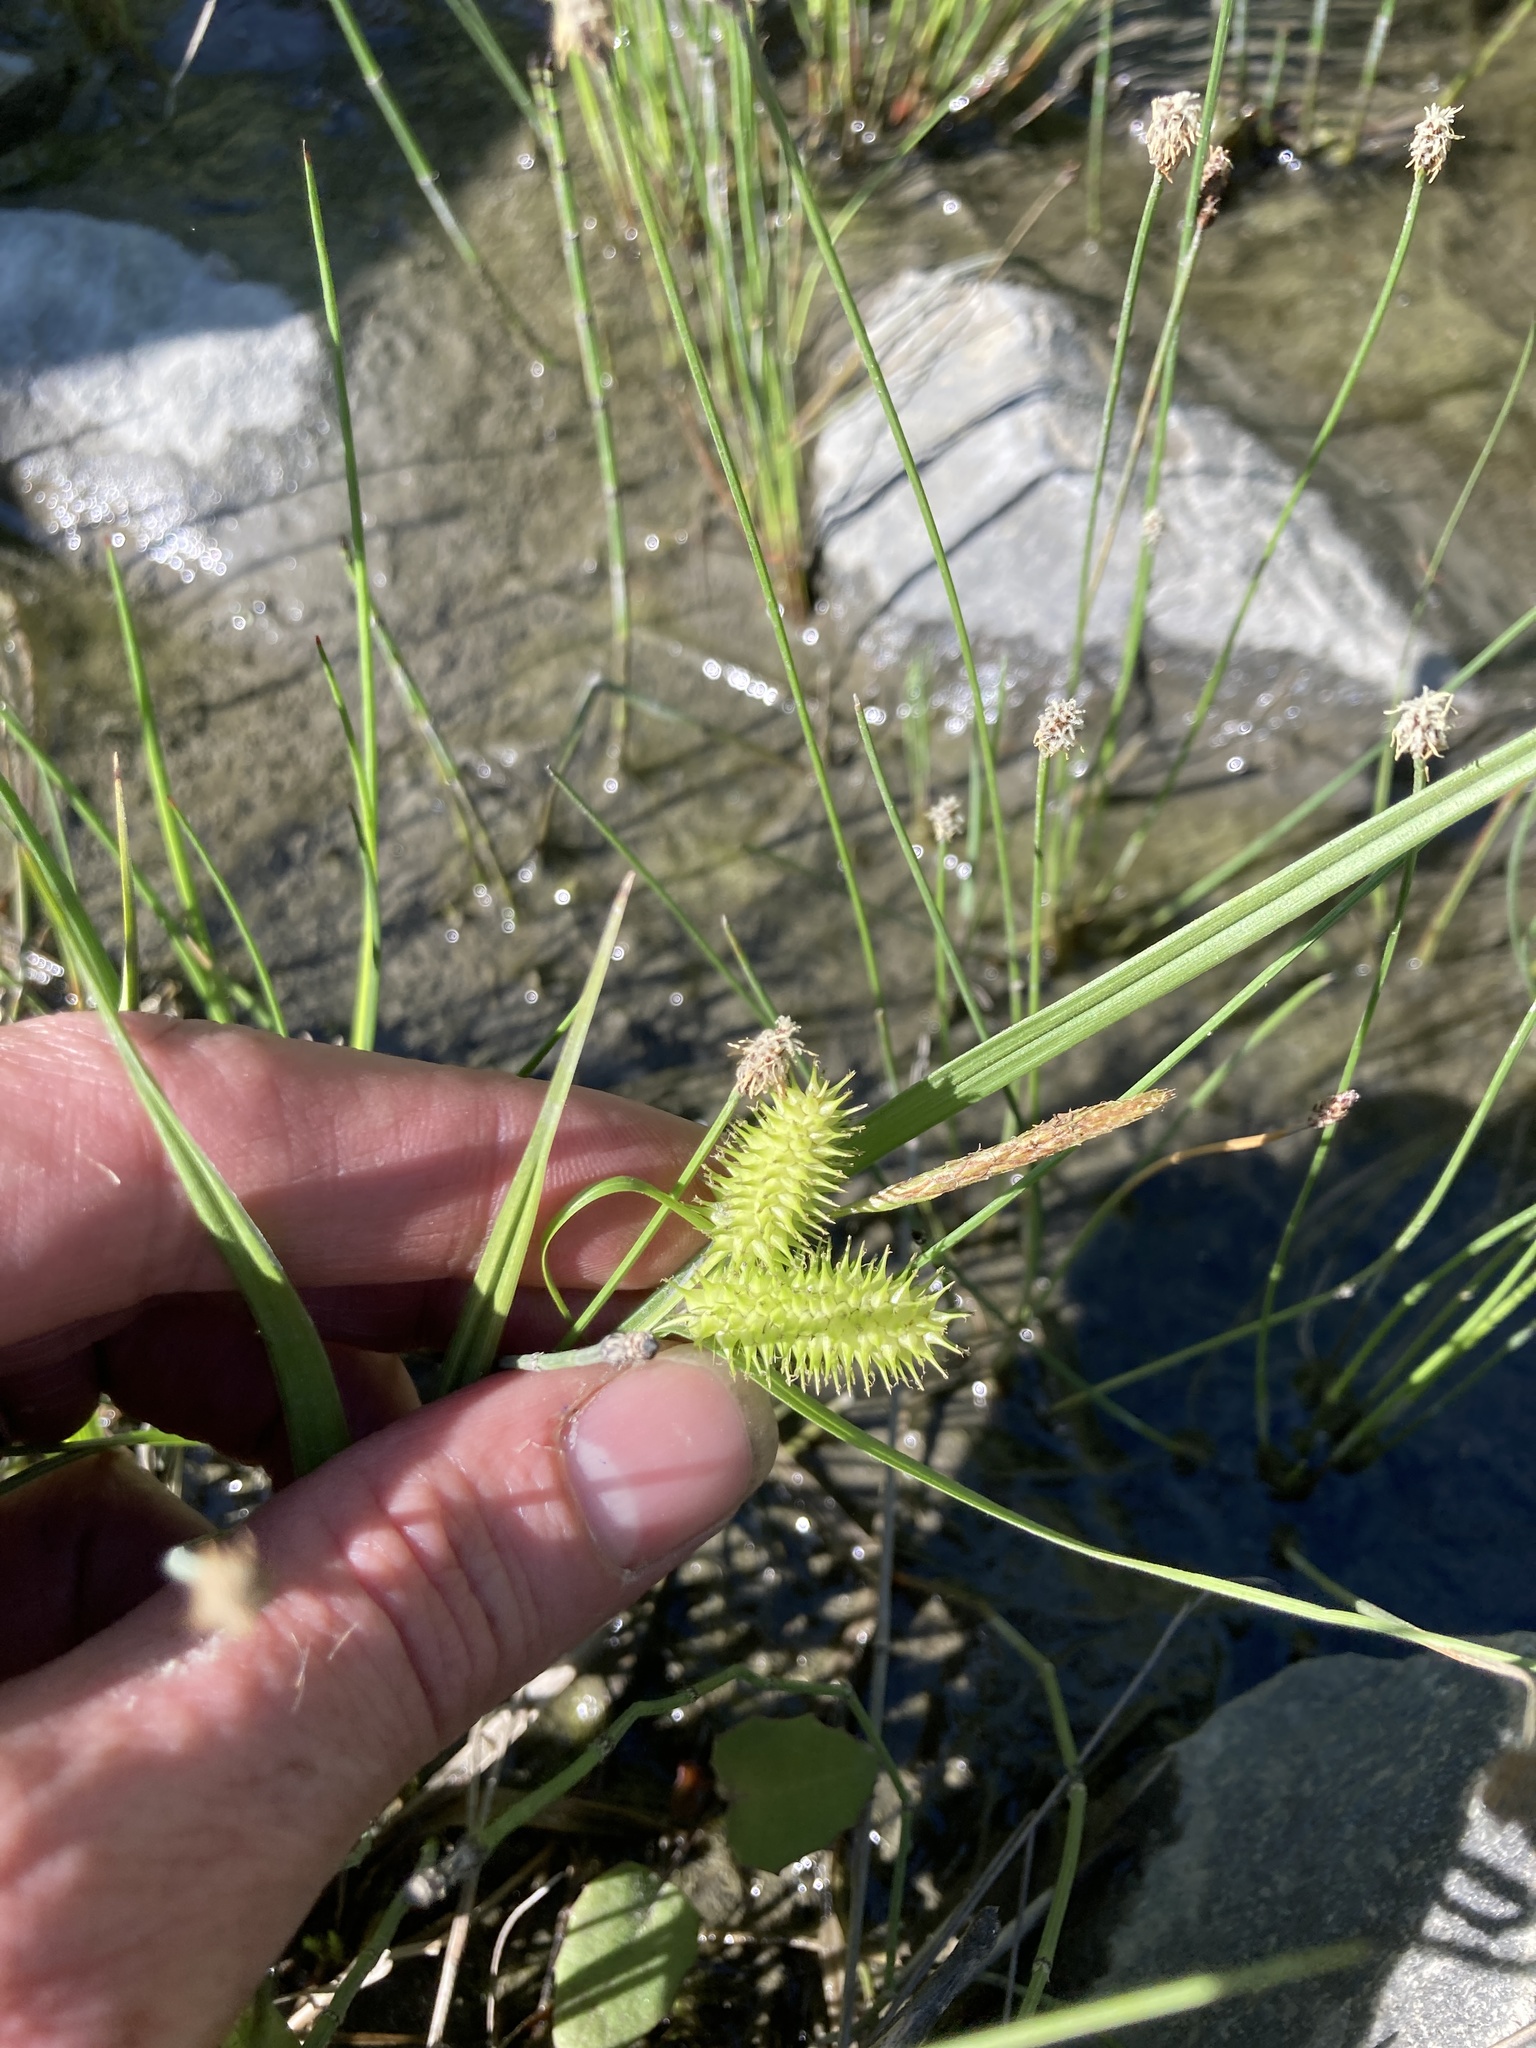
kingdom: Plantae
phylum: Tracheophyta
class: Liliopsida
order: Poales
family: Cyperaceae
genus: Carex
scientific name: Carex hystericina
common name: Bottlebrush sedge
